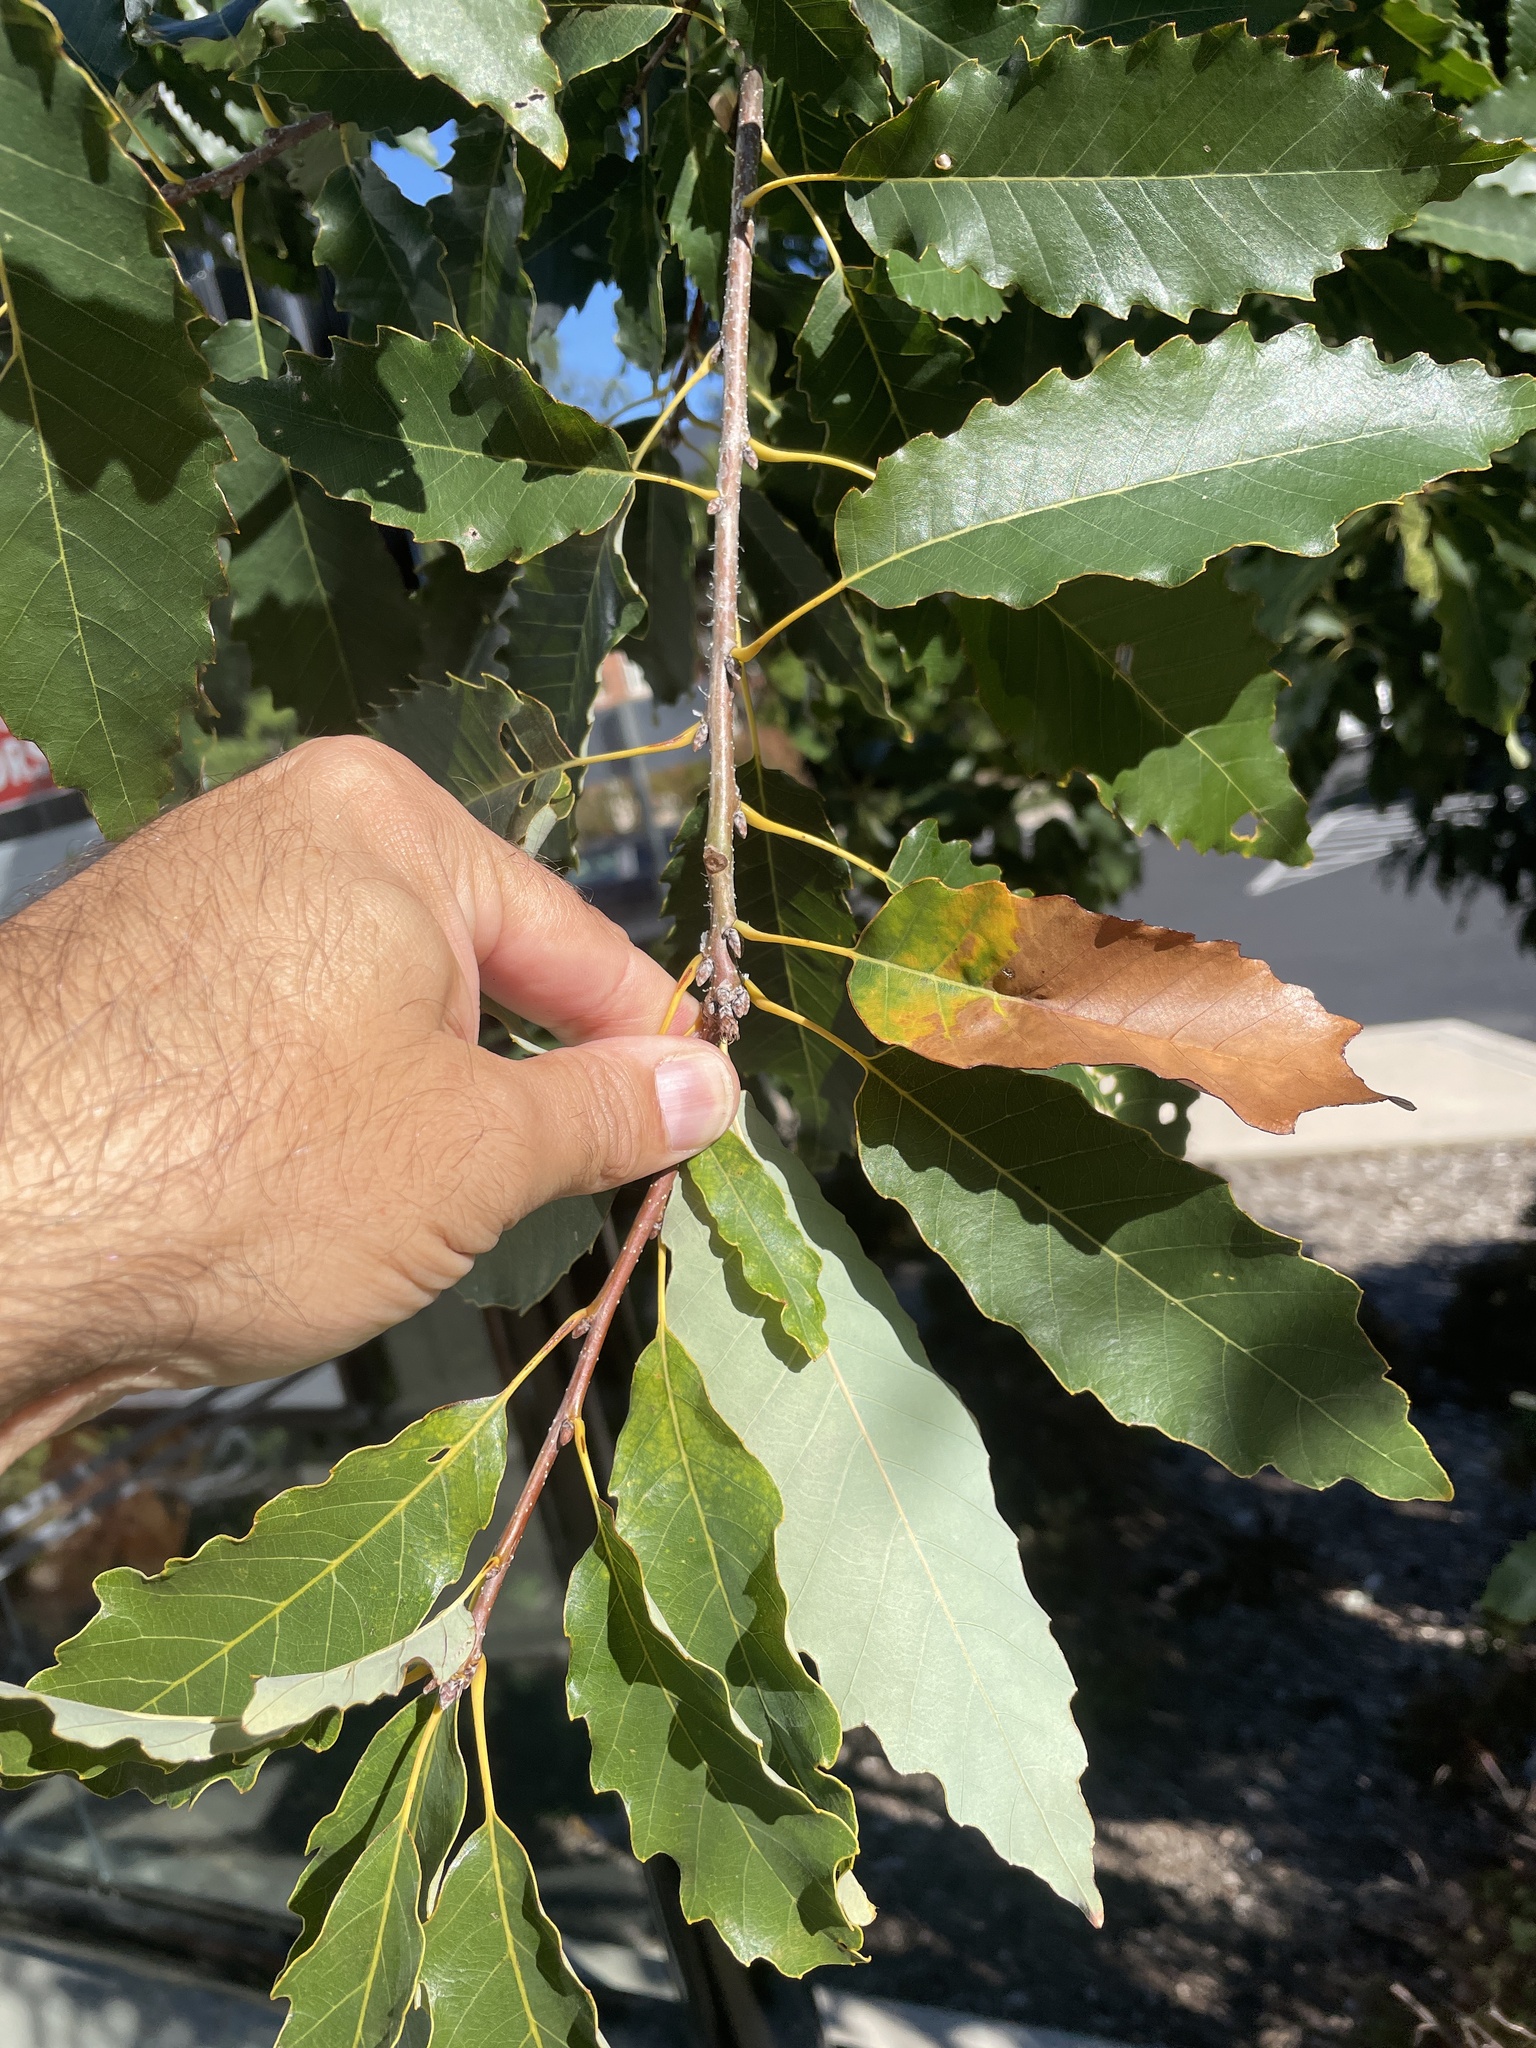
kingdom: Animalia
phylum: Arthropoda
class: Insecta
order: Hymenoptera
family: Cynipidae
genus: Andricus
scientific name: Andricus
